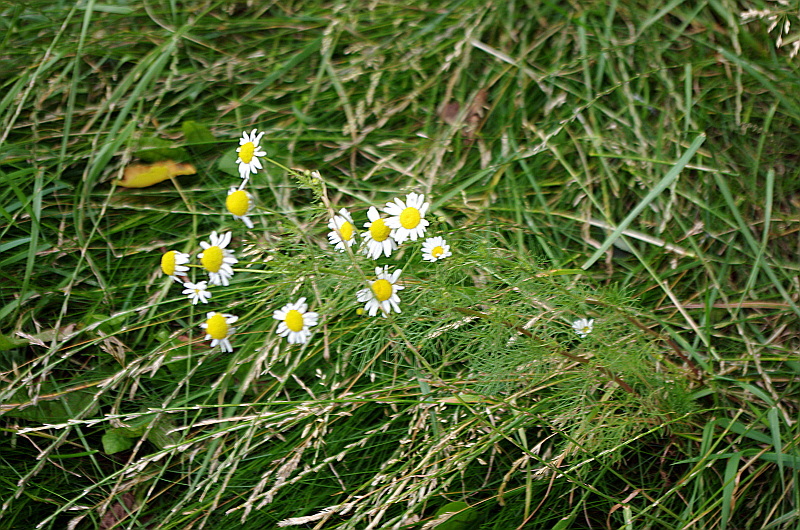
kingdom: Plantae
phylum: Tracheophyta
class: Magnoliopsida
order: Asterales
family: Asteraceae
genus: Tripleurospermum
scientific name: Tripleurospermum inodorum
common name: Scentless mayweed
